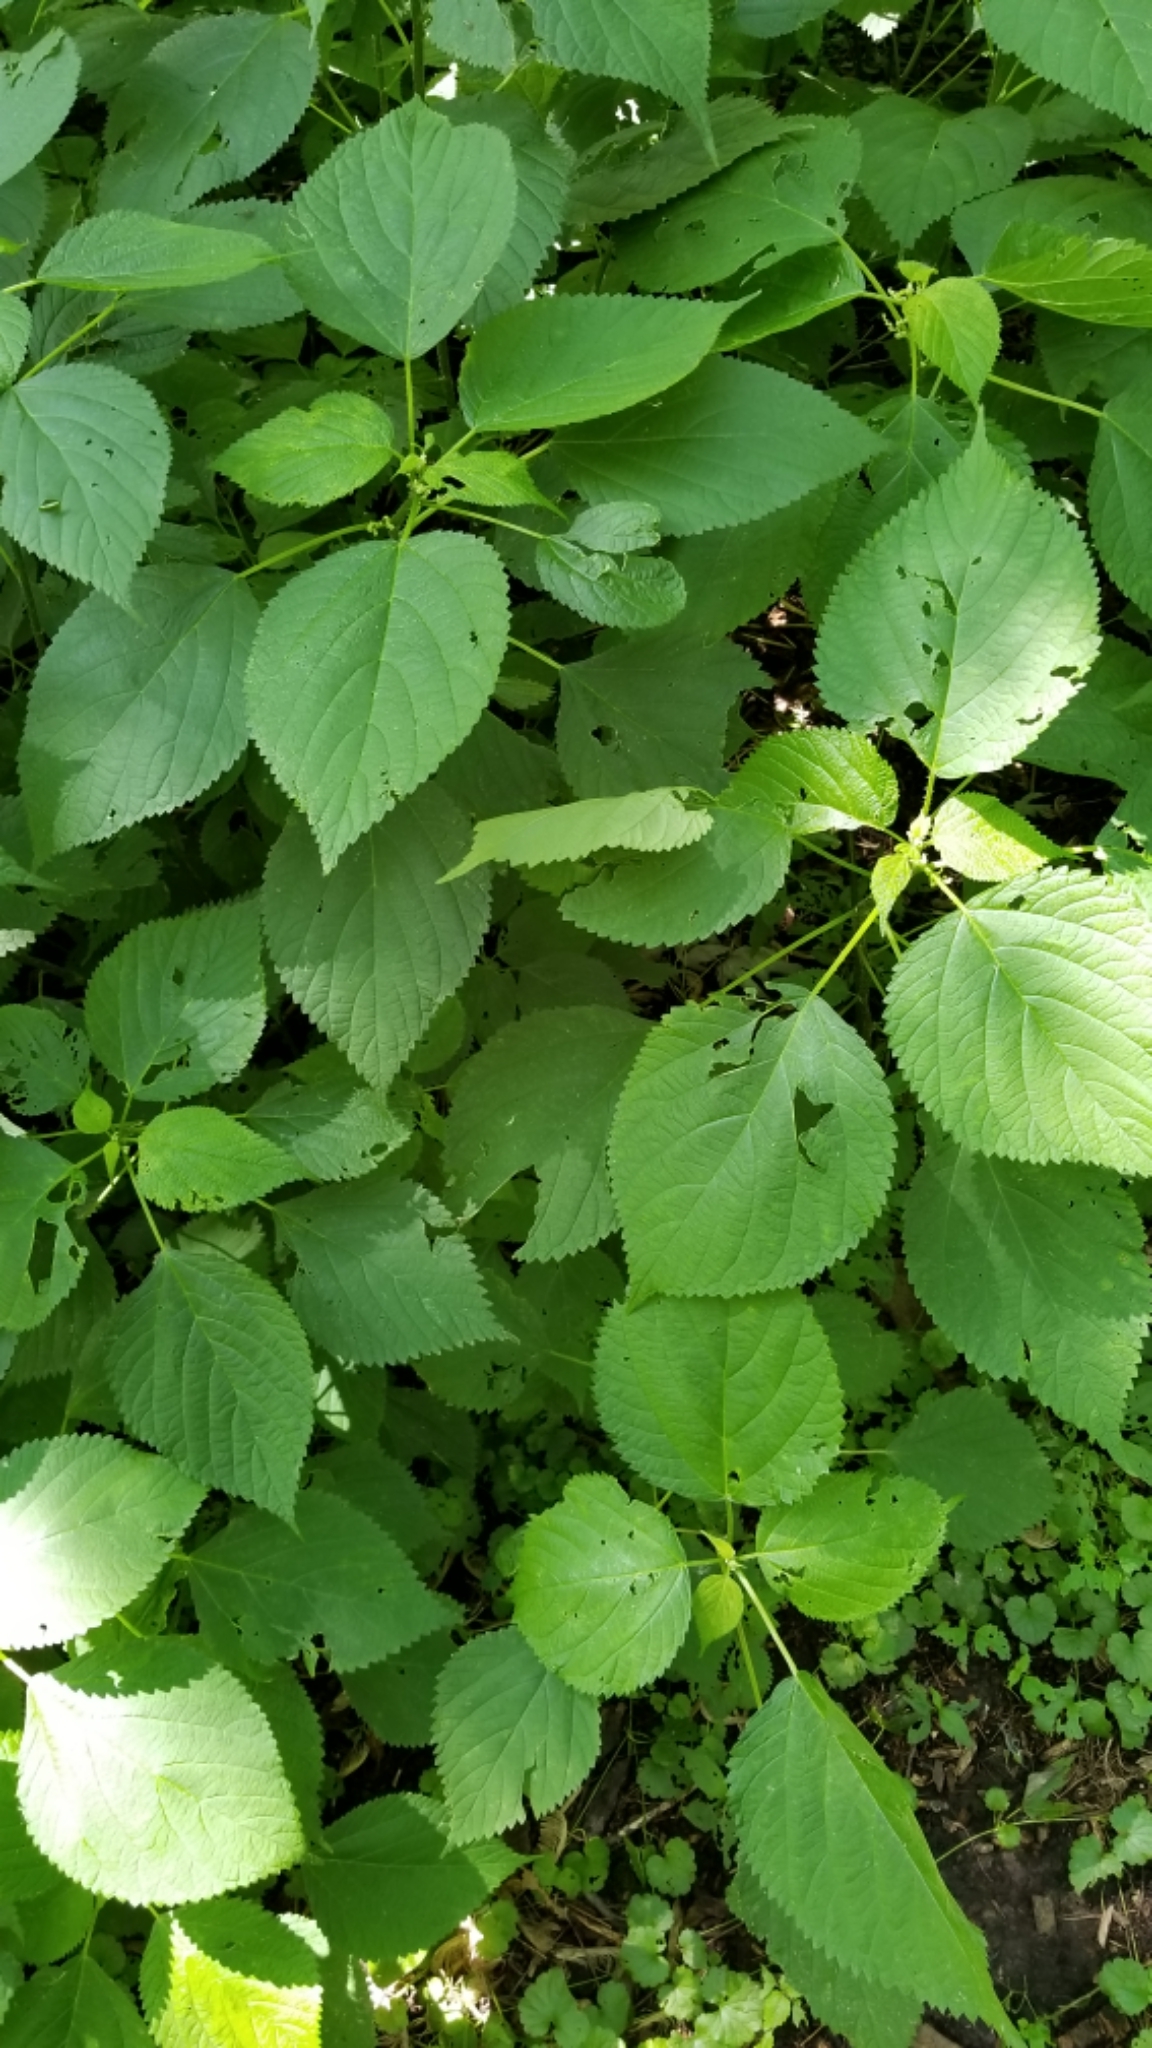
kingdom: Plantae
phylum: Tracheophyta
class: Magnoliopsida
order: Rosales
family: Urticaceae
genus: Laportea
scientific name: Laportea canadensis
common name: Canada nettle
